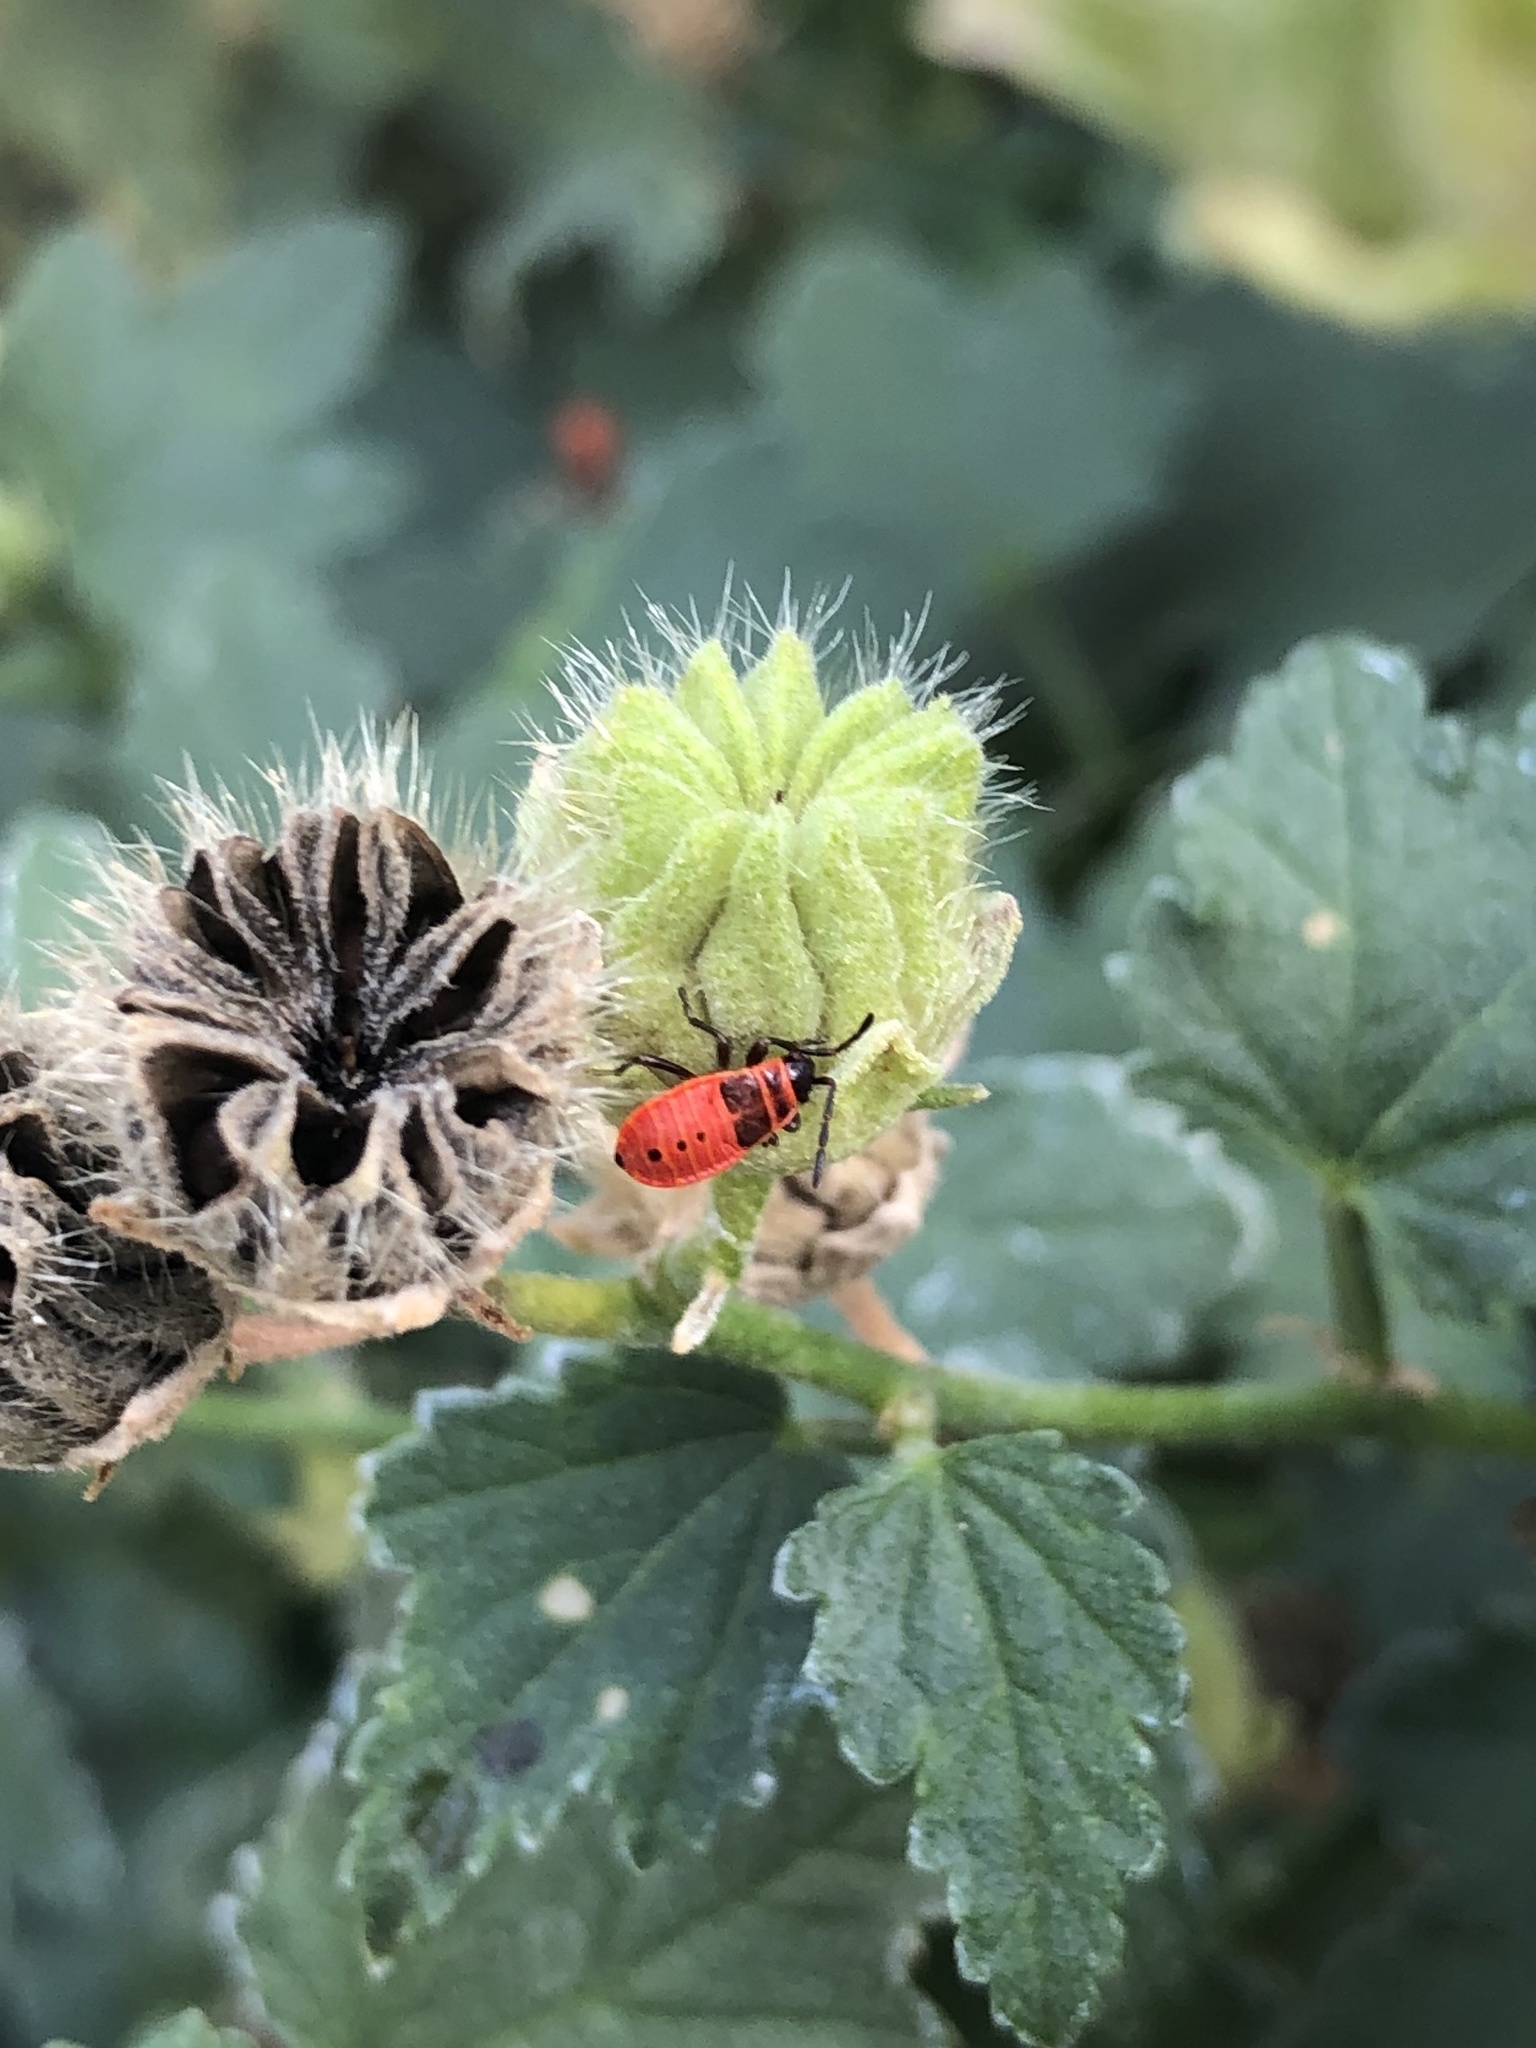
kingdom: Animalia
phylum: Arthropoda
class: Insecta
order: Hemiptera
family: Pyrrhocoridae
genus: Pyrrhocoris
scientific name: Pyrrhocoris apterus
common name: Firebug
